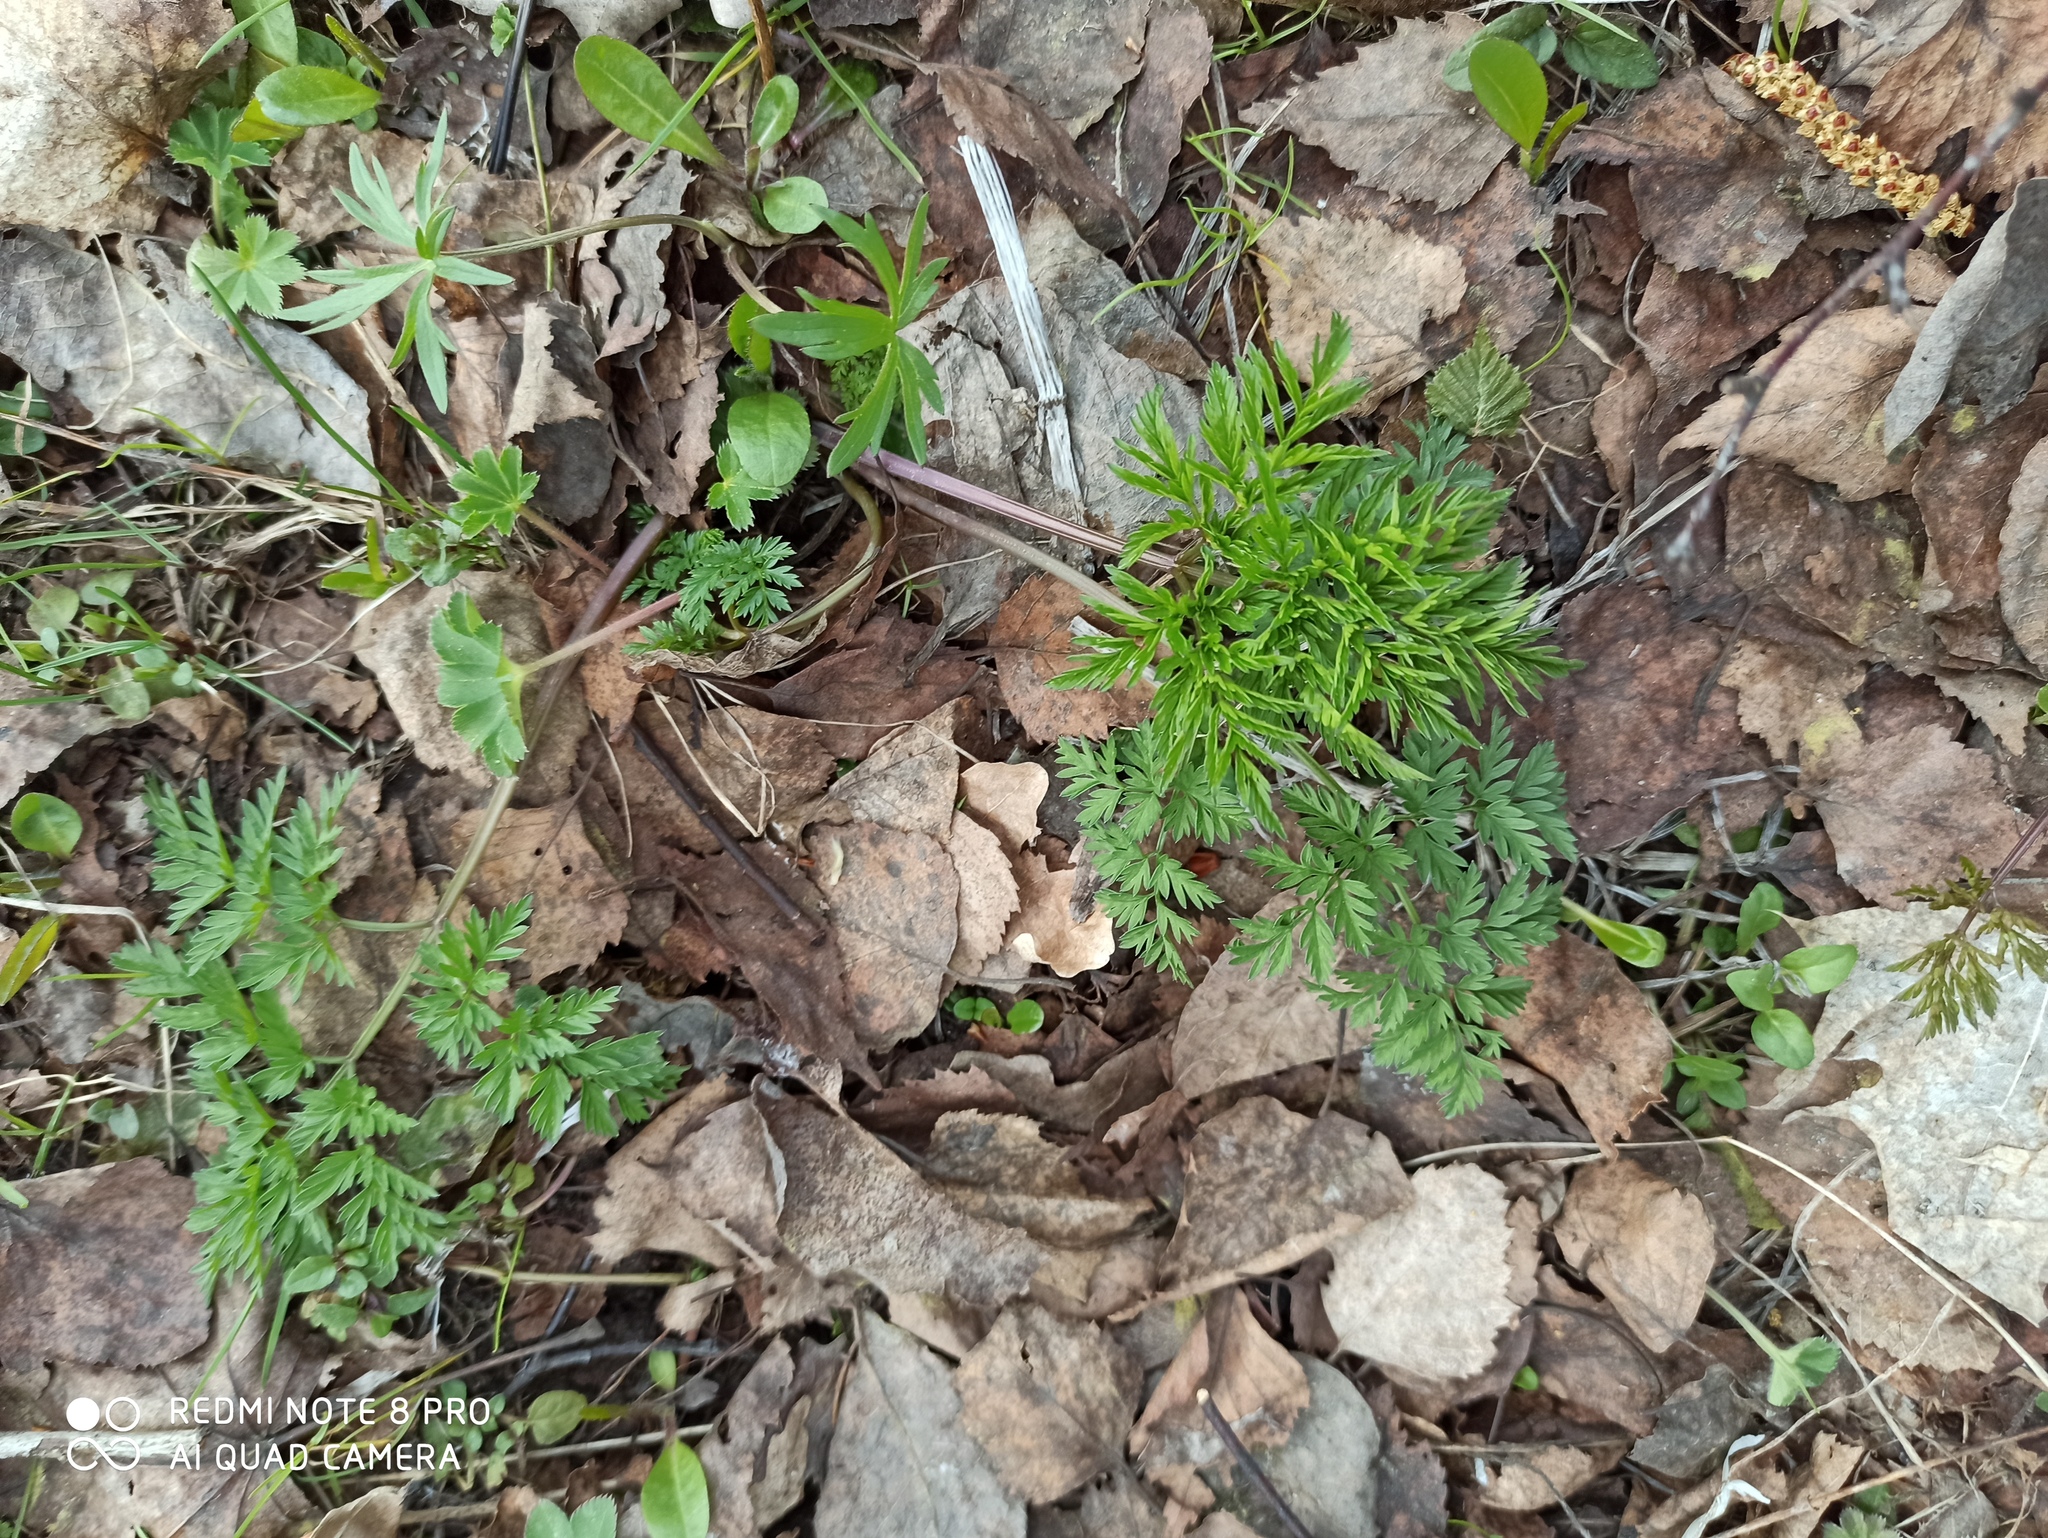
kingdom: Plantae
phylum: Tracheophyta
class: Magnoliopsida
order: Apiales
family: Apiaceae
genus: Anthriscus
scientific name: Anthriscus sylvestris
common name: Cow parsley
